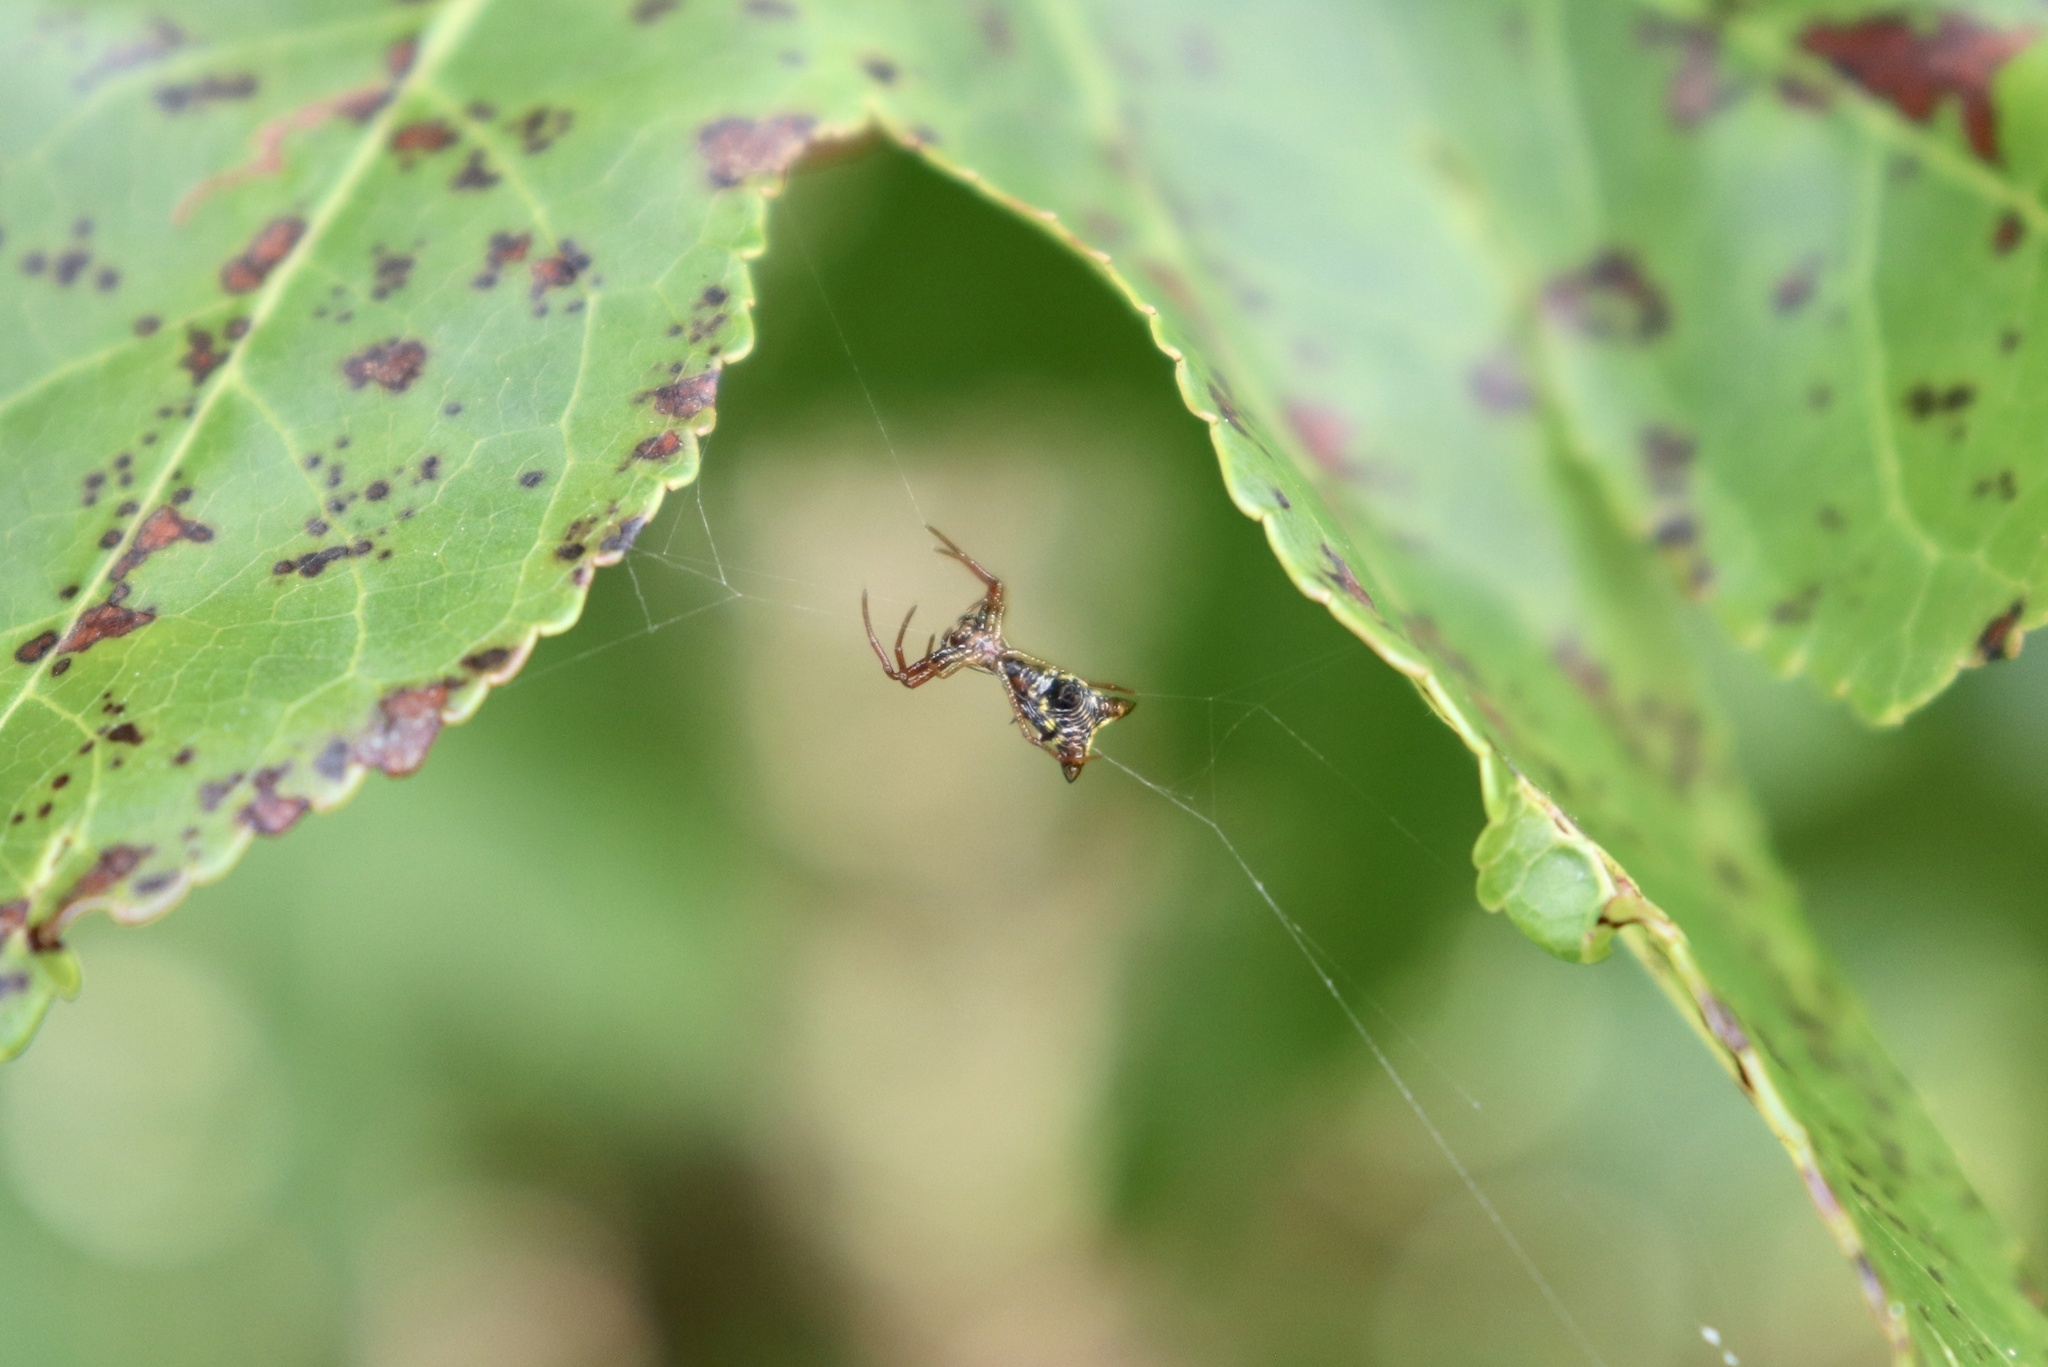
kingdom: Animalia
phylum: Arthropoda
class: Arachnida
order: Araneae
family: Araneidae
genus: Micrathena
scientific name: Micrathena sagittata
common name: Orb weavers
